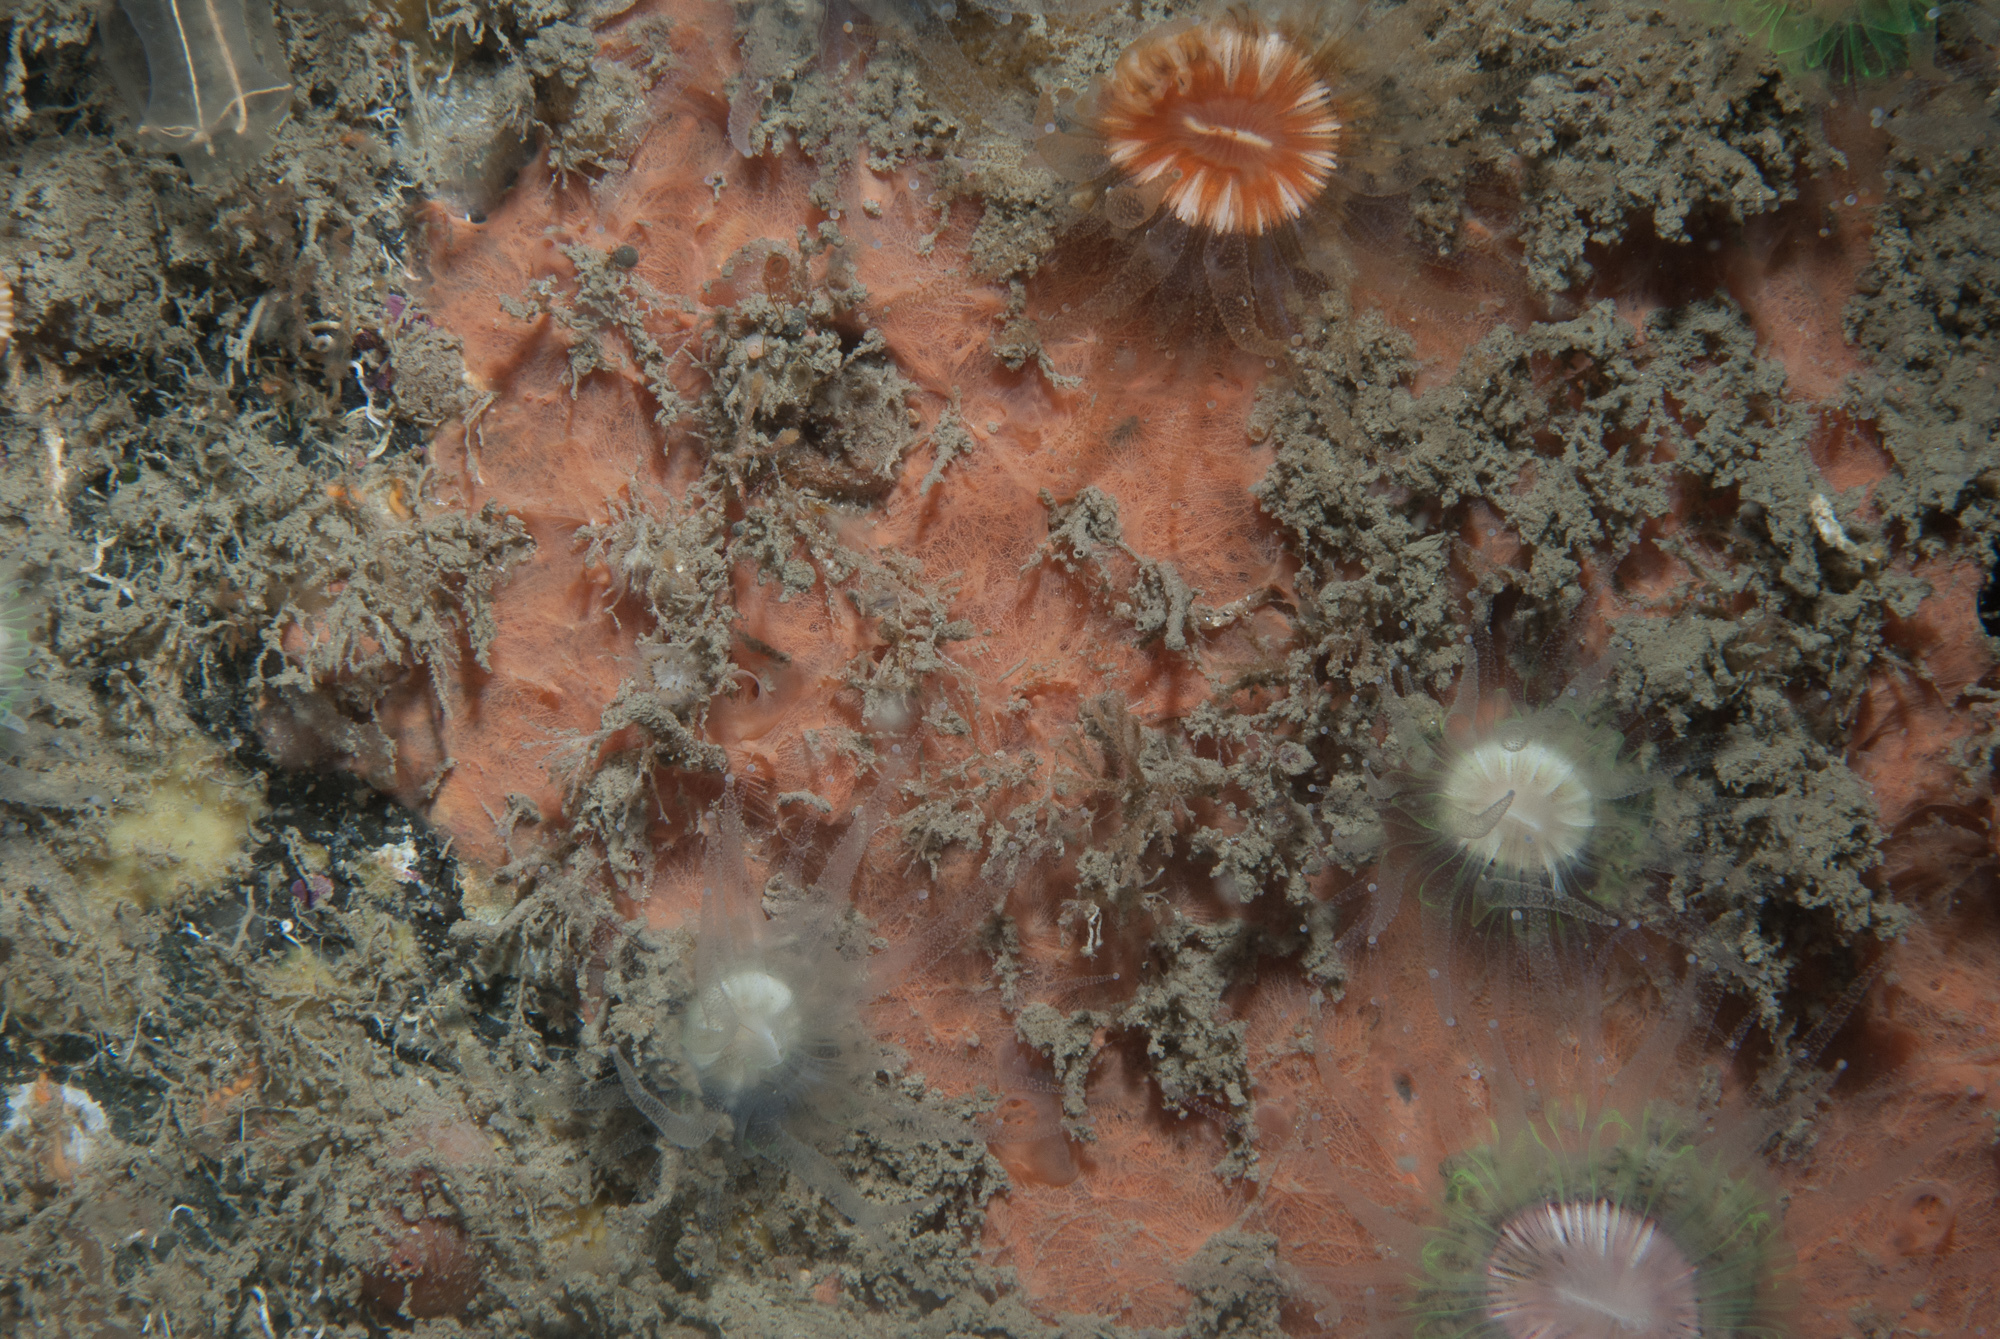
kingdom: Animalia
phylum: Porifera
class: Demospongiae
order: Verongiida
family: Ianthellidae
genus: Hexadella
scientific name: Hexadella topsenti
